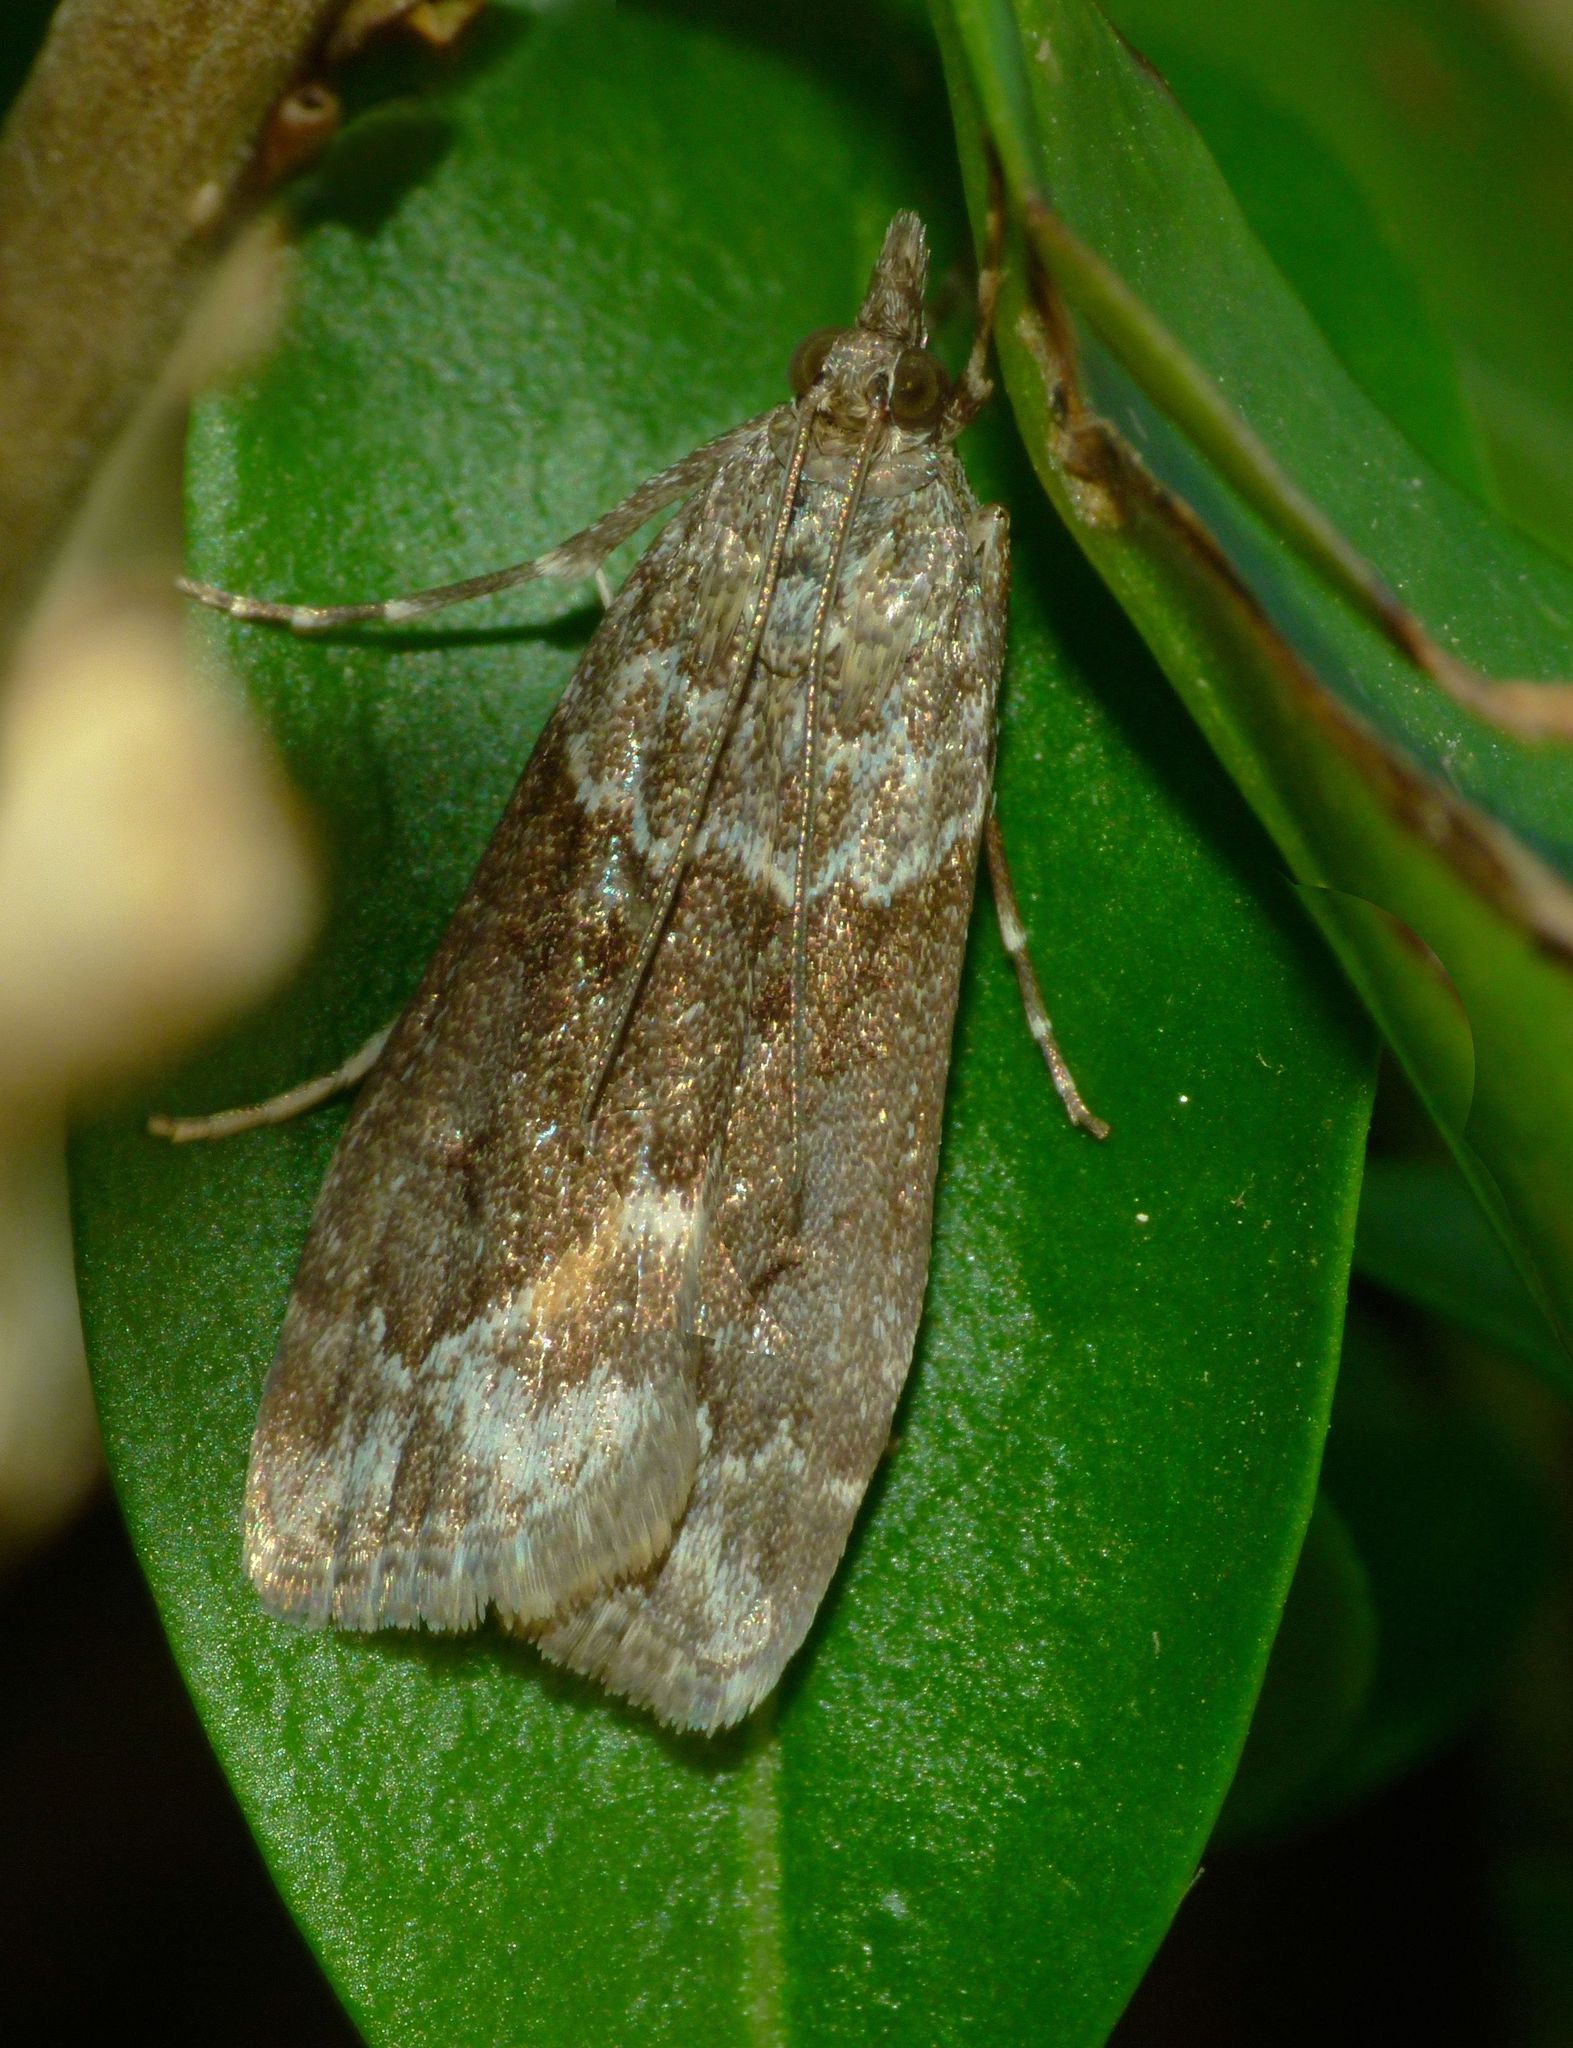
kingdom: Animalia
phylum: Arthropoda
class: Insecta
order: Lepidoptera
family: Crambidae
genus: Eudonia
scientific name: Eudonia submarginalis
